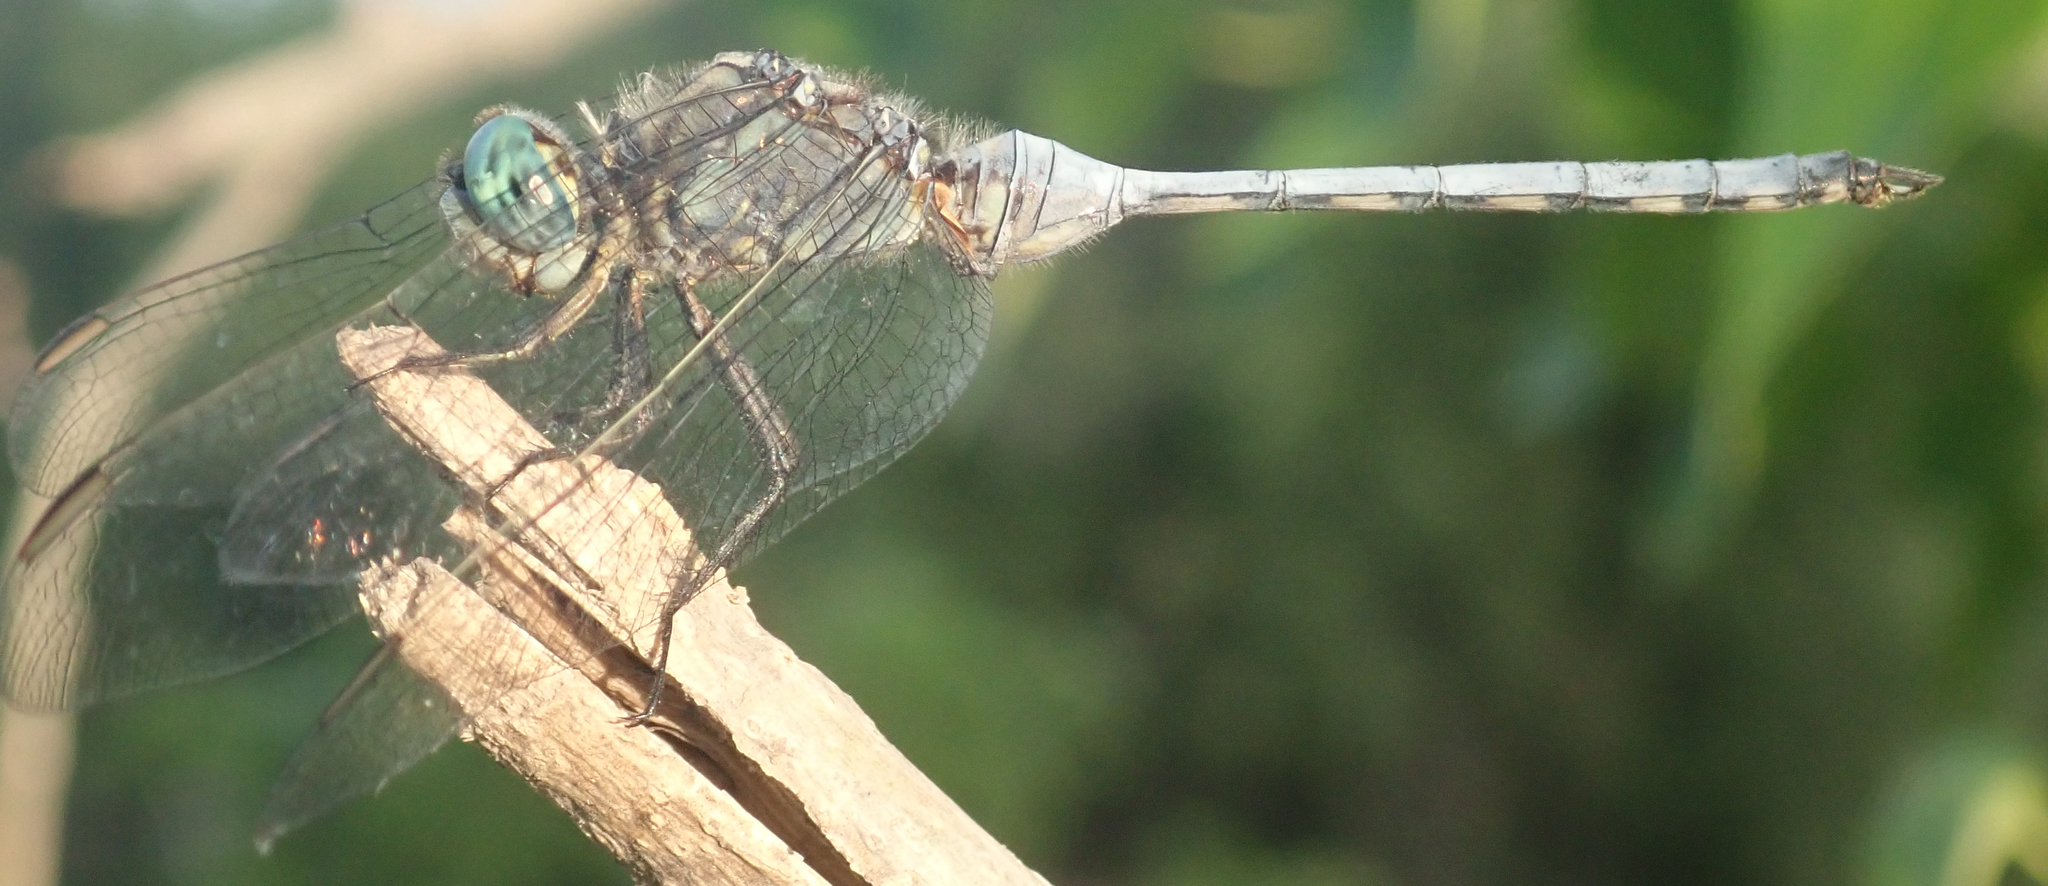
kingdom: Animalia
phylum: Arthropoda
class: Insecta
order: Odonata
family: Libellulidae
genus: Orthetrum
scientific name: Orthetrum robustum
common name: Robust skimmer
